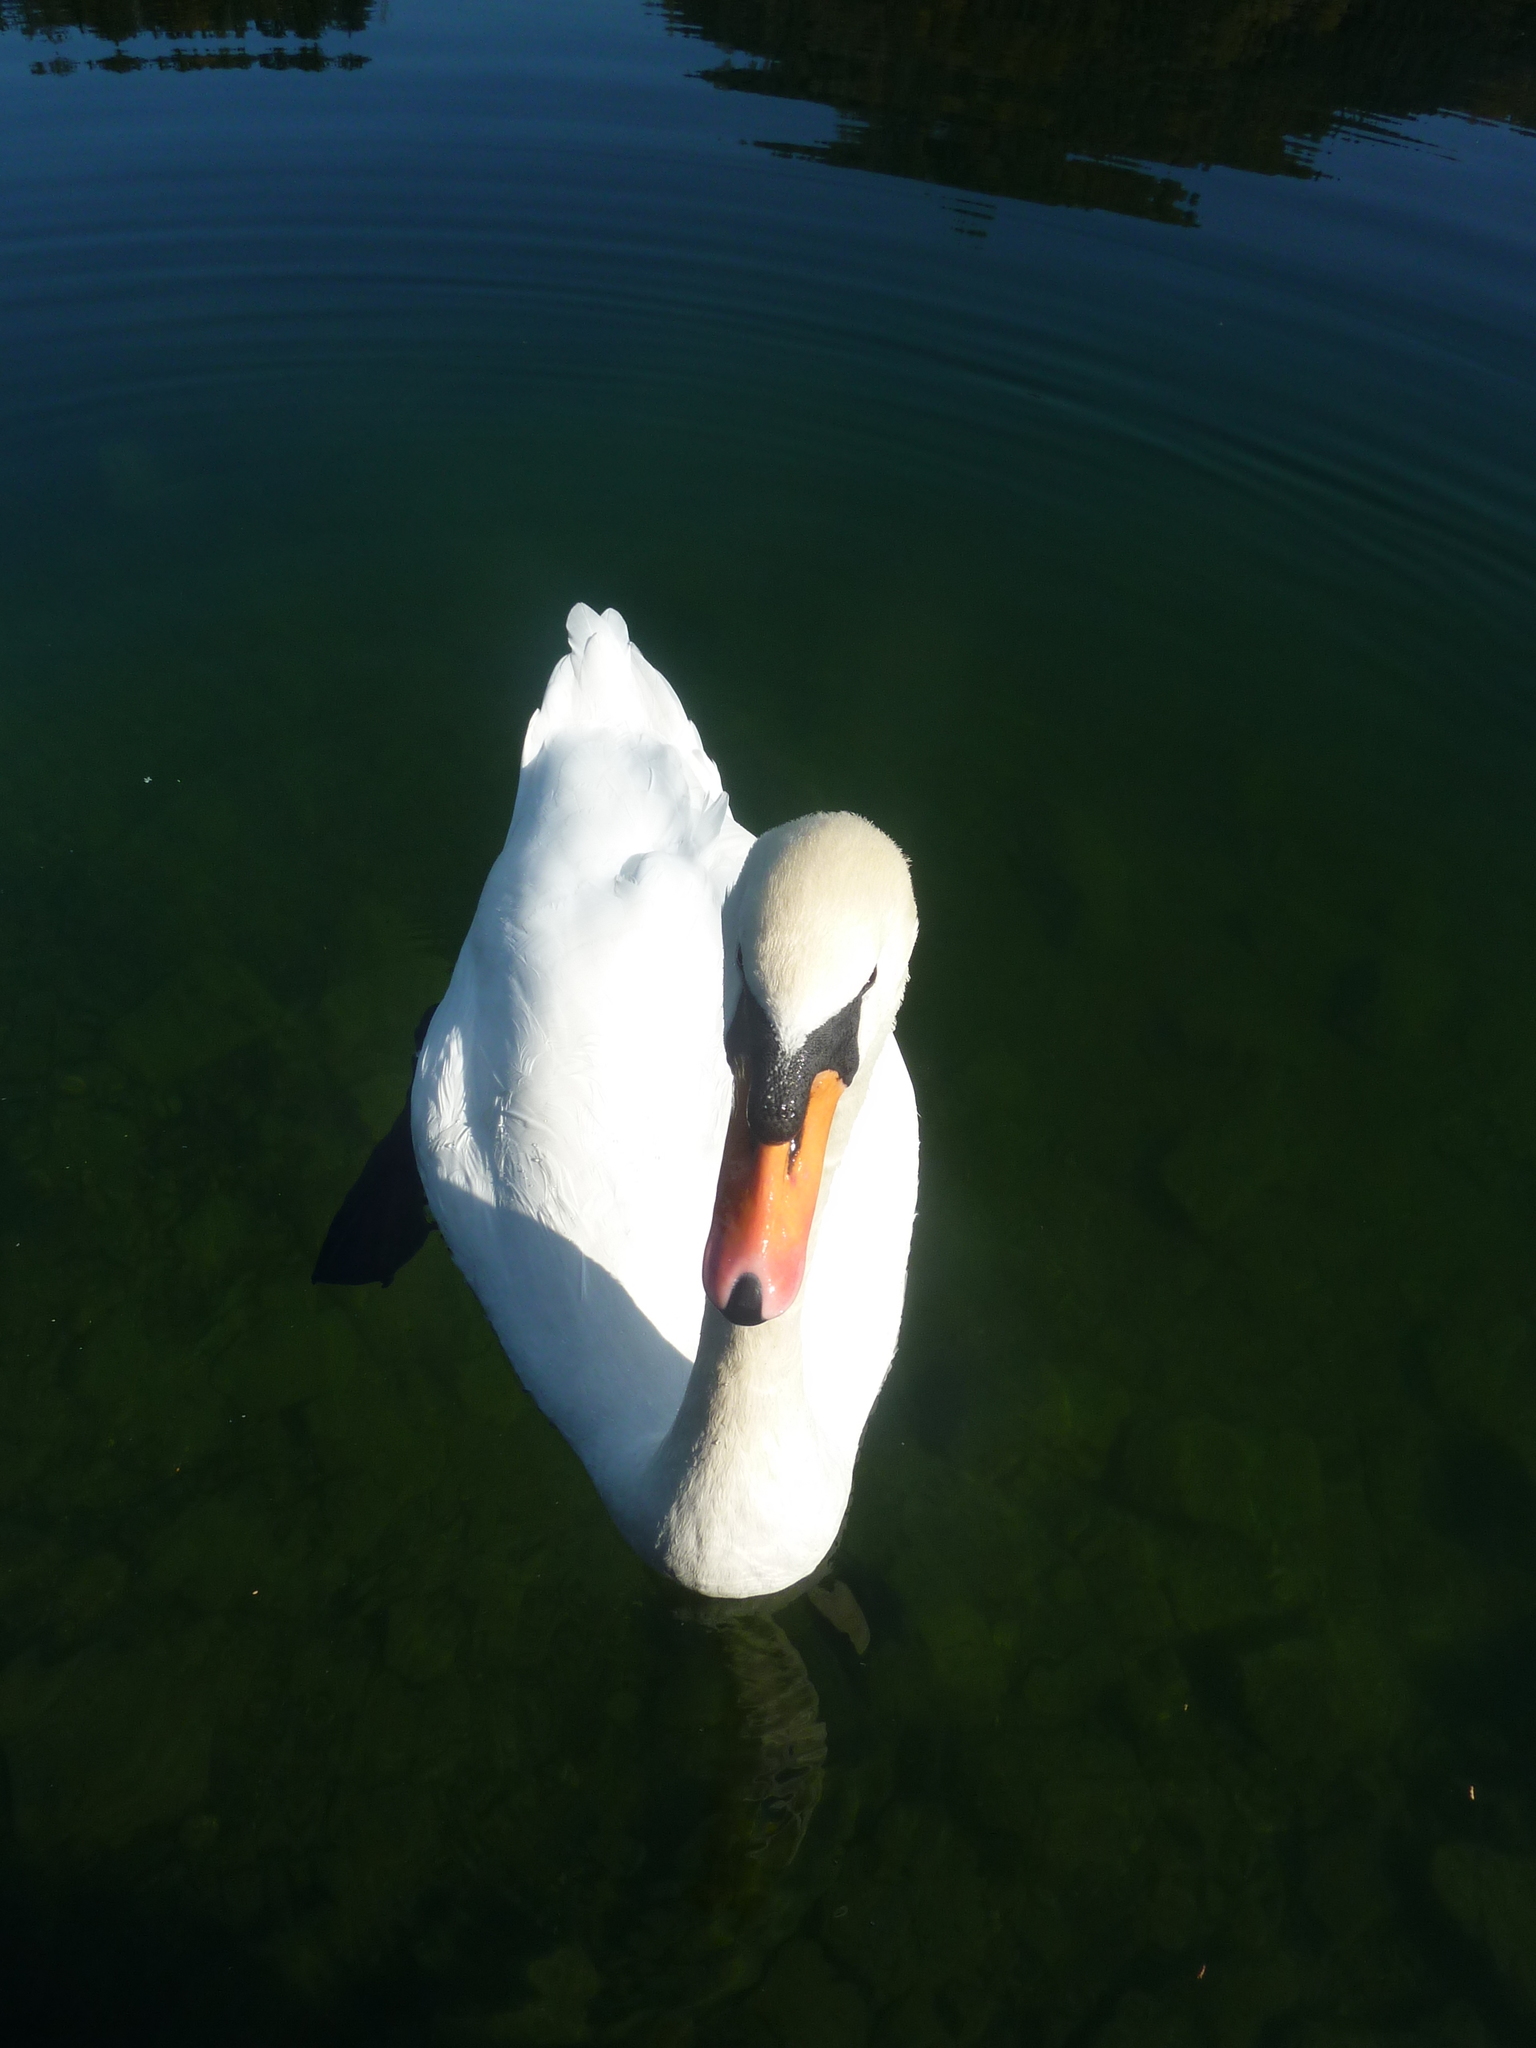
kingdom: Animalia
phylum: Chordata
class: Aves
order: Anseriformes
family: Anatidae
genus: Cygnus
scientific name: Cygnus olor
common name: Mute swan
